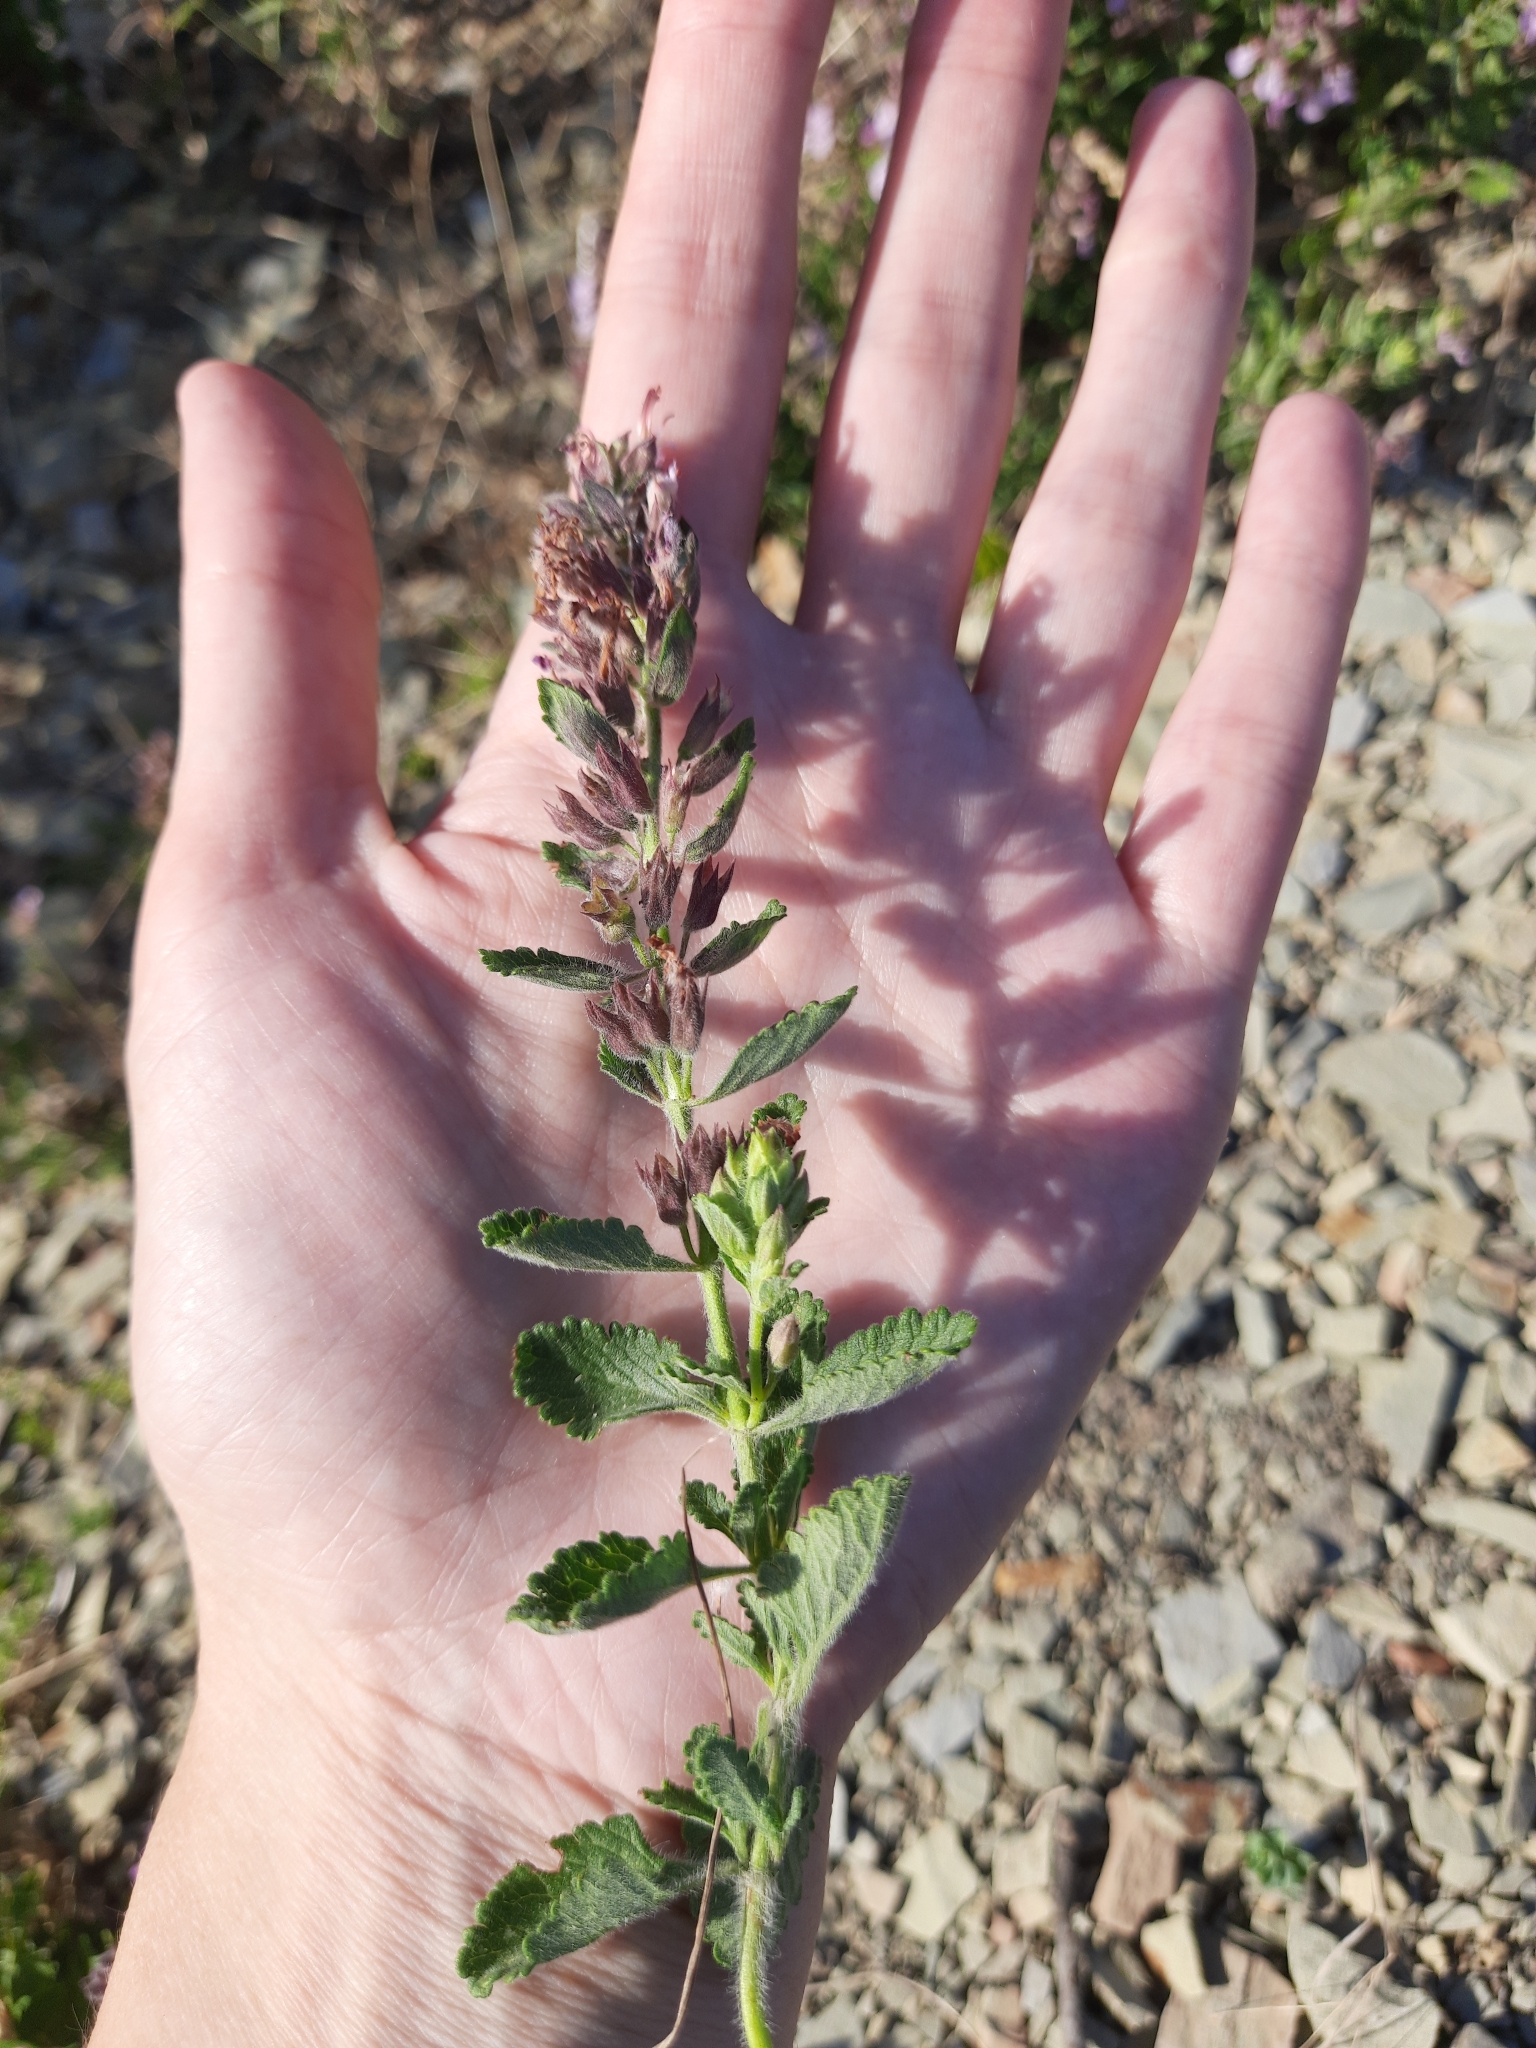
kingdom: Plantae
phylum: Tracheophyta
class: Magnoliopsida
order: Lamiales
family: Lamiaceae
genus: Teucrium
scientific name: Teucrium chamaedrys
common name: Wall germander
